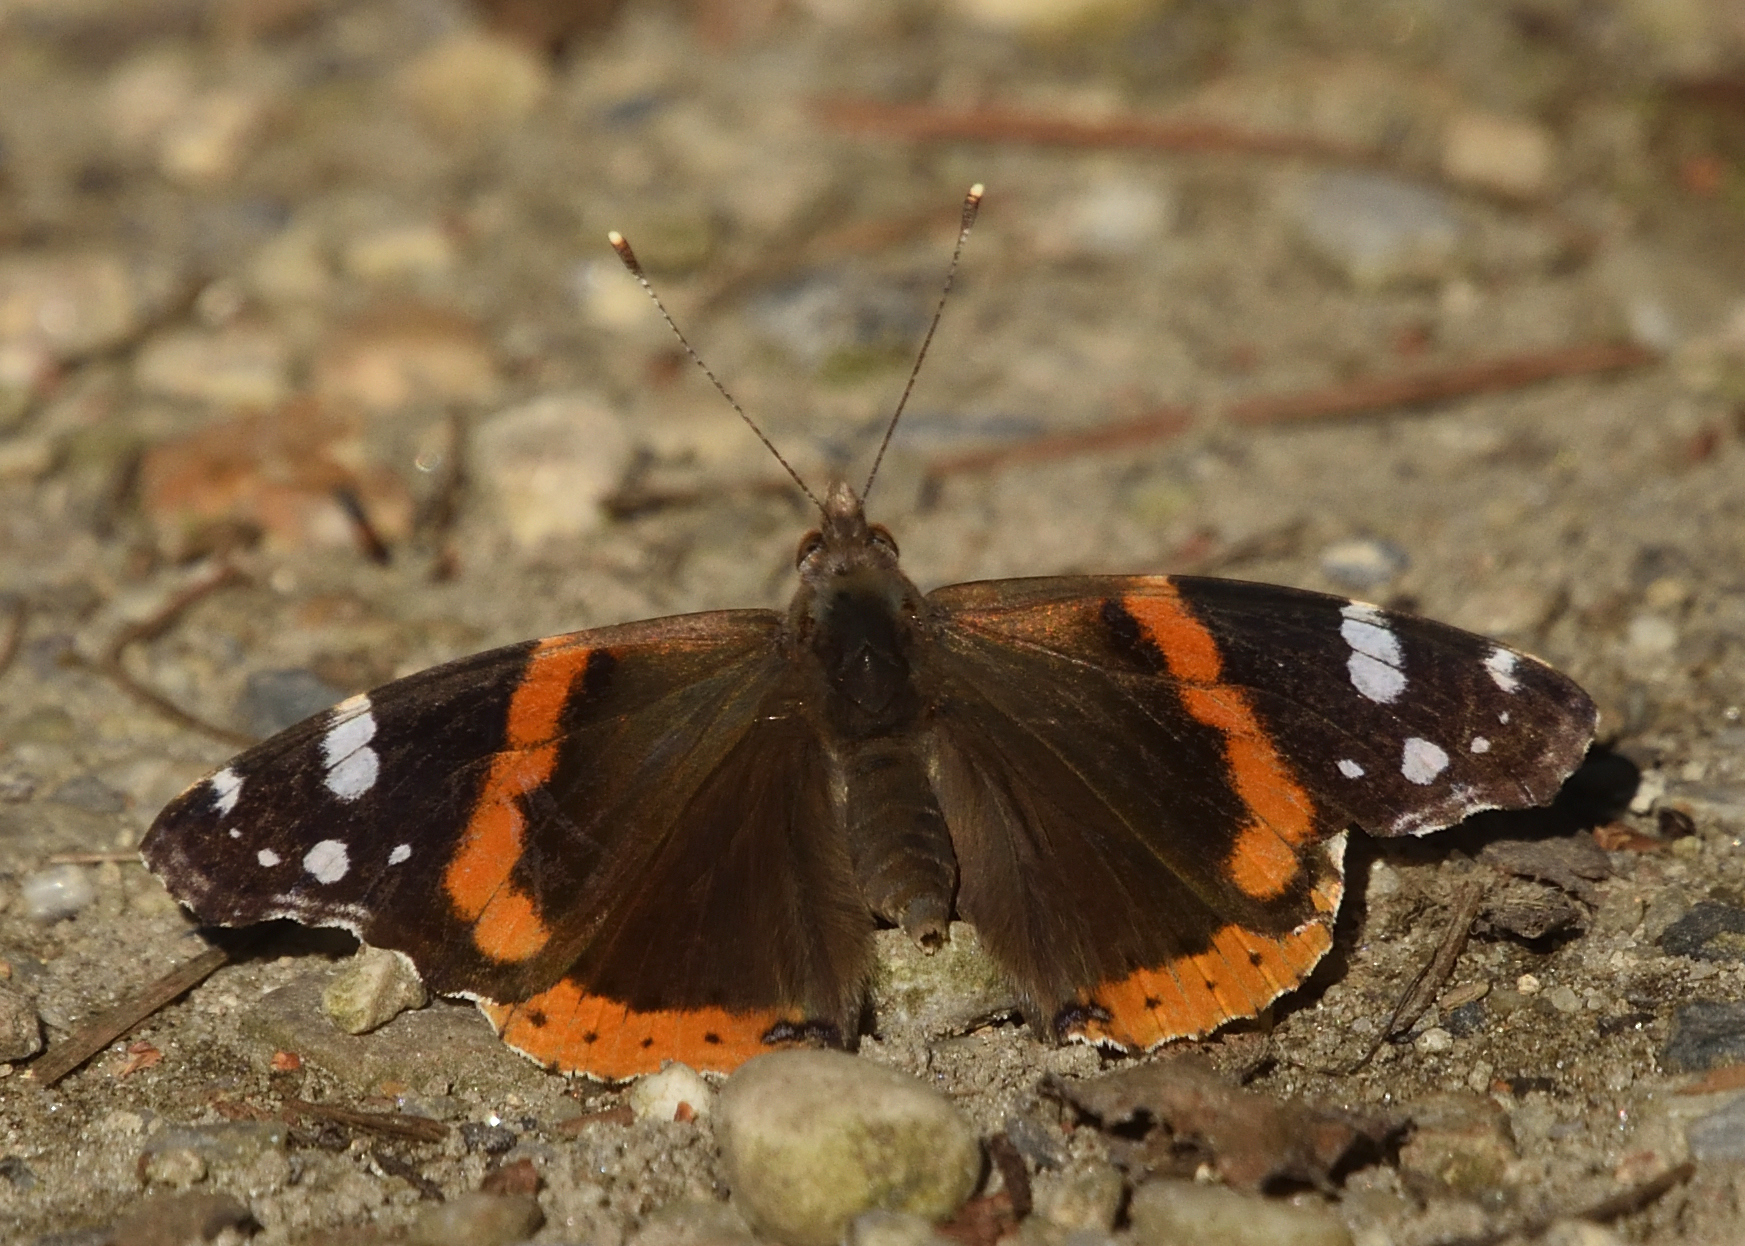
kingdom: Animalia
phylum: Arthropoda
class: Insecta
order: Lepidoptera
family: Nymphalidae
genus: Vanessa
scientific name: Vanessa atalanta
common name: Red admiral
